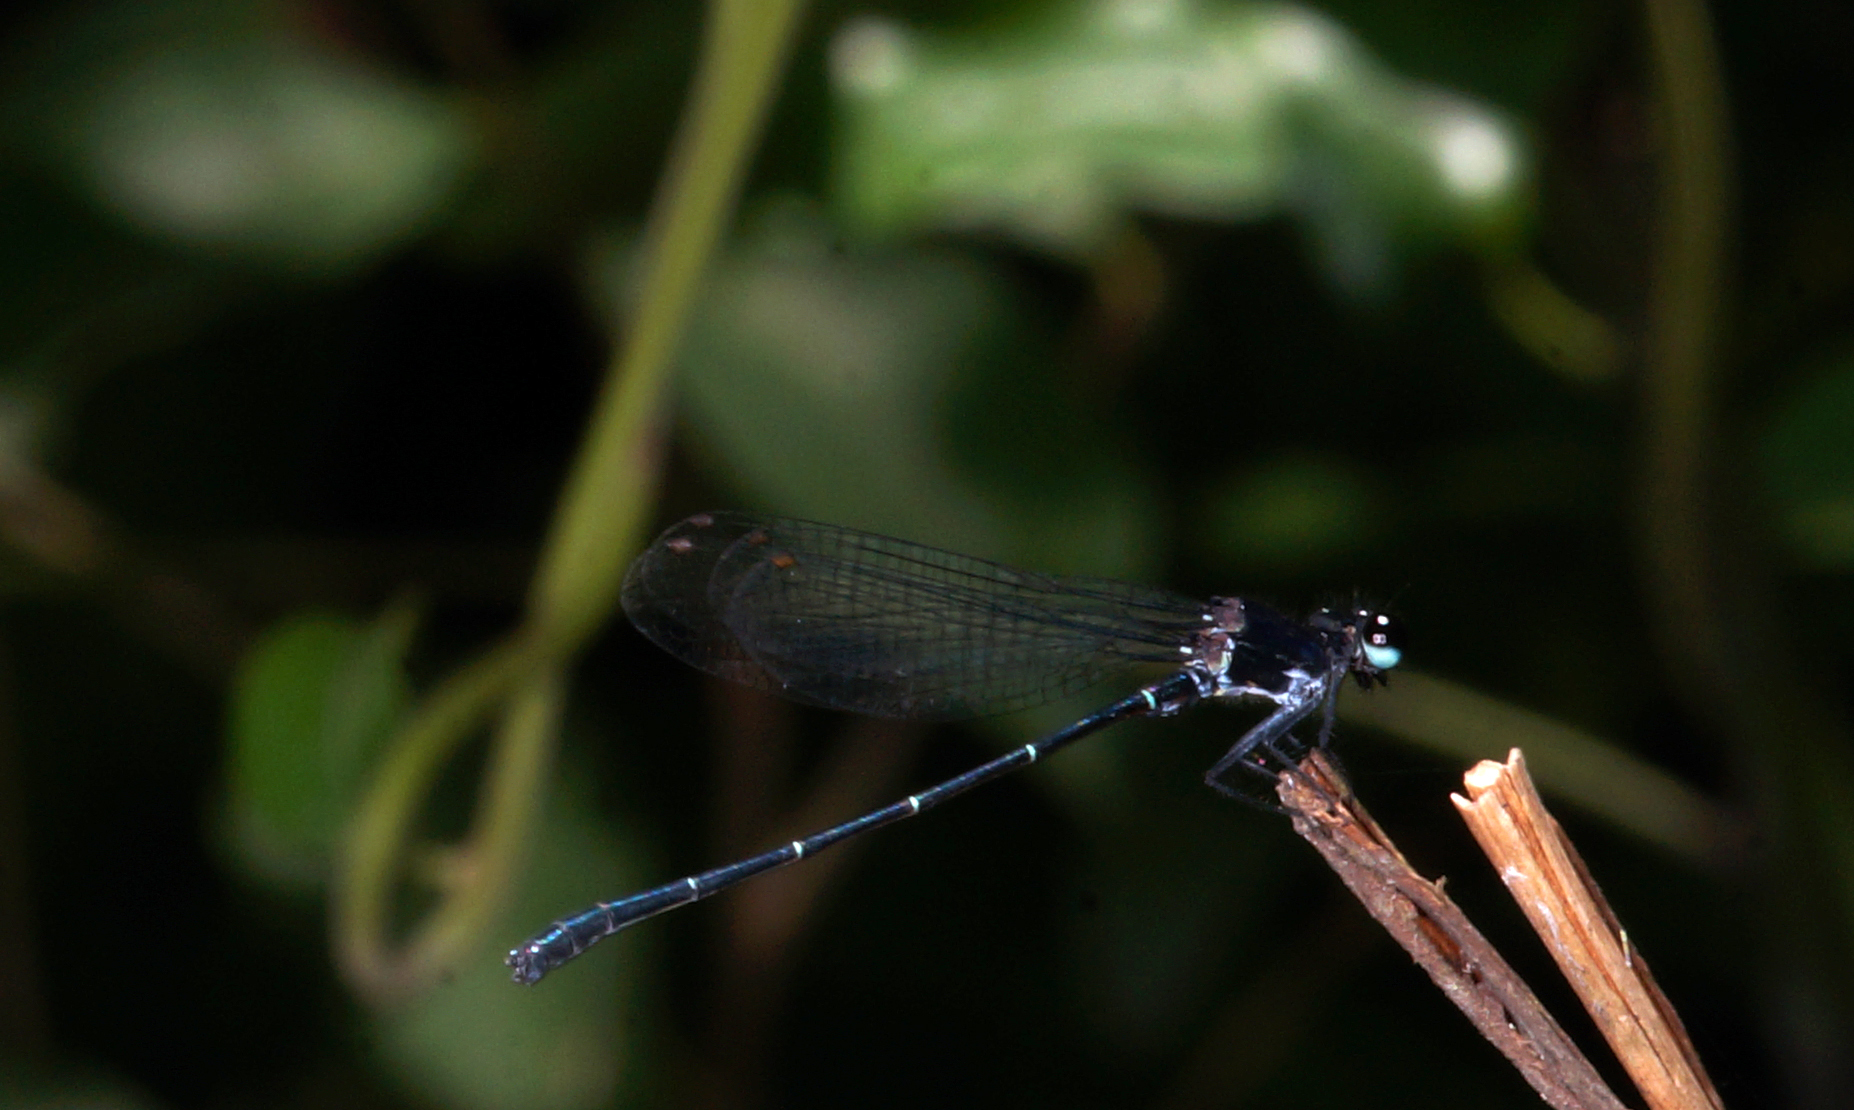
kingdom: Animalia
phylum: Arthropoda
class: Insecta
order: Odonata
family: Platycnemididae
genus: Onychargia
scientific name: Onychargia atrocyana
